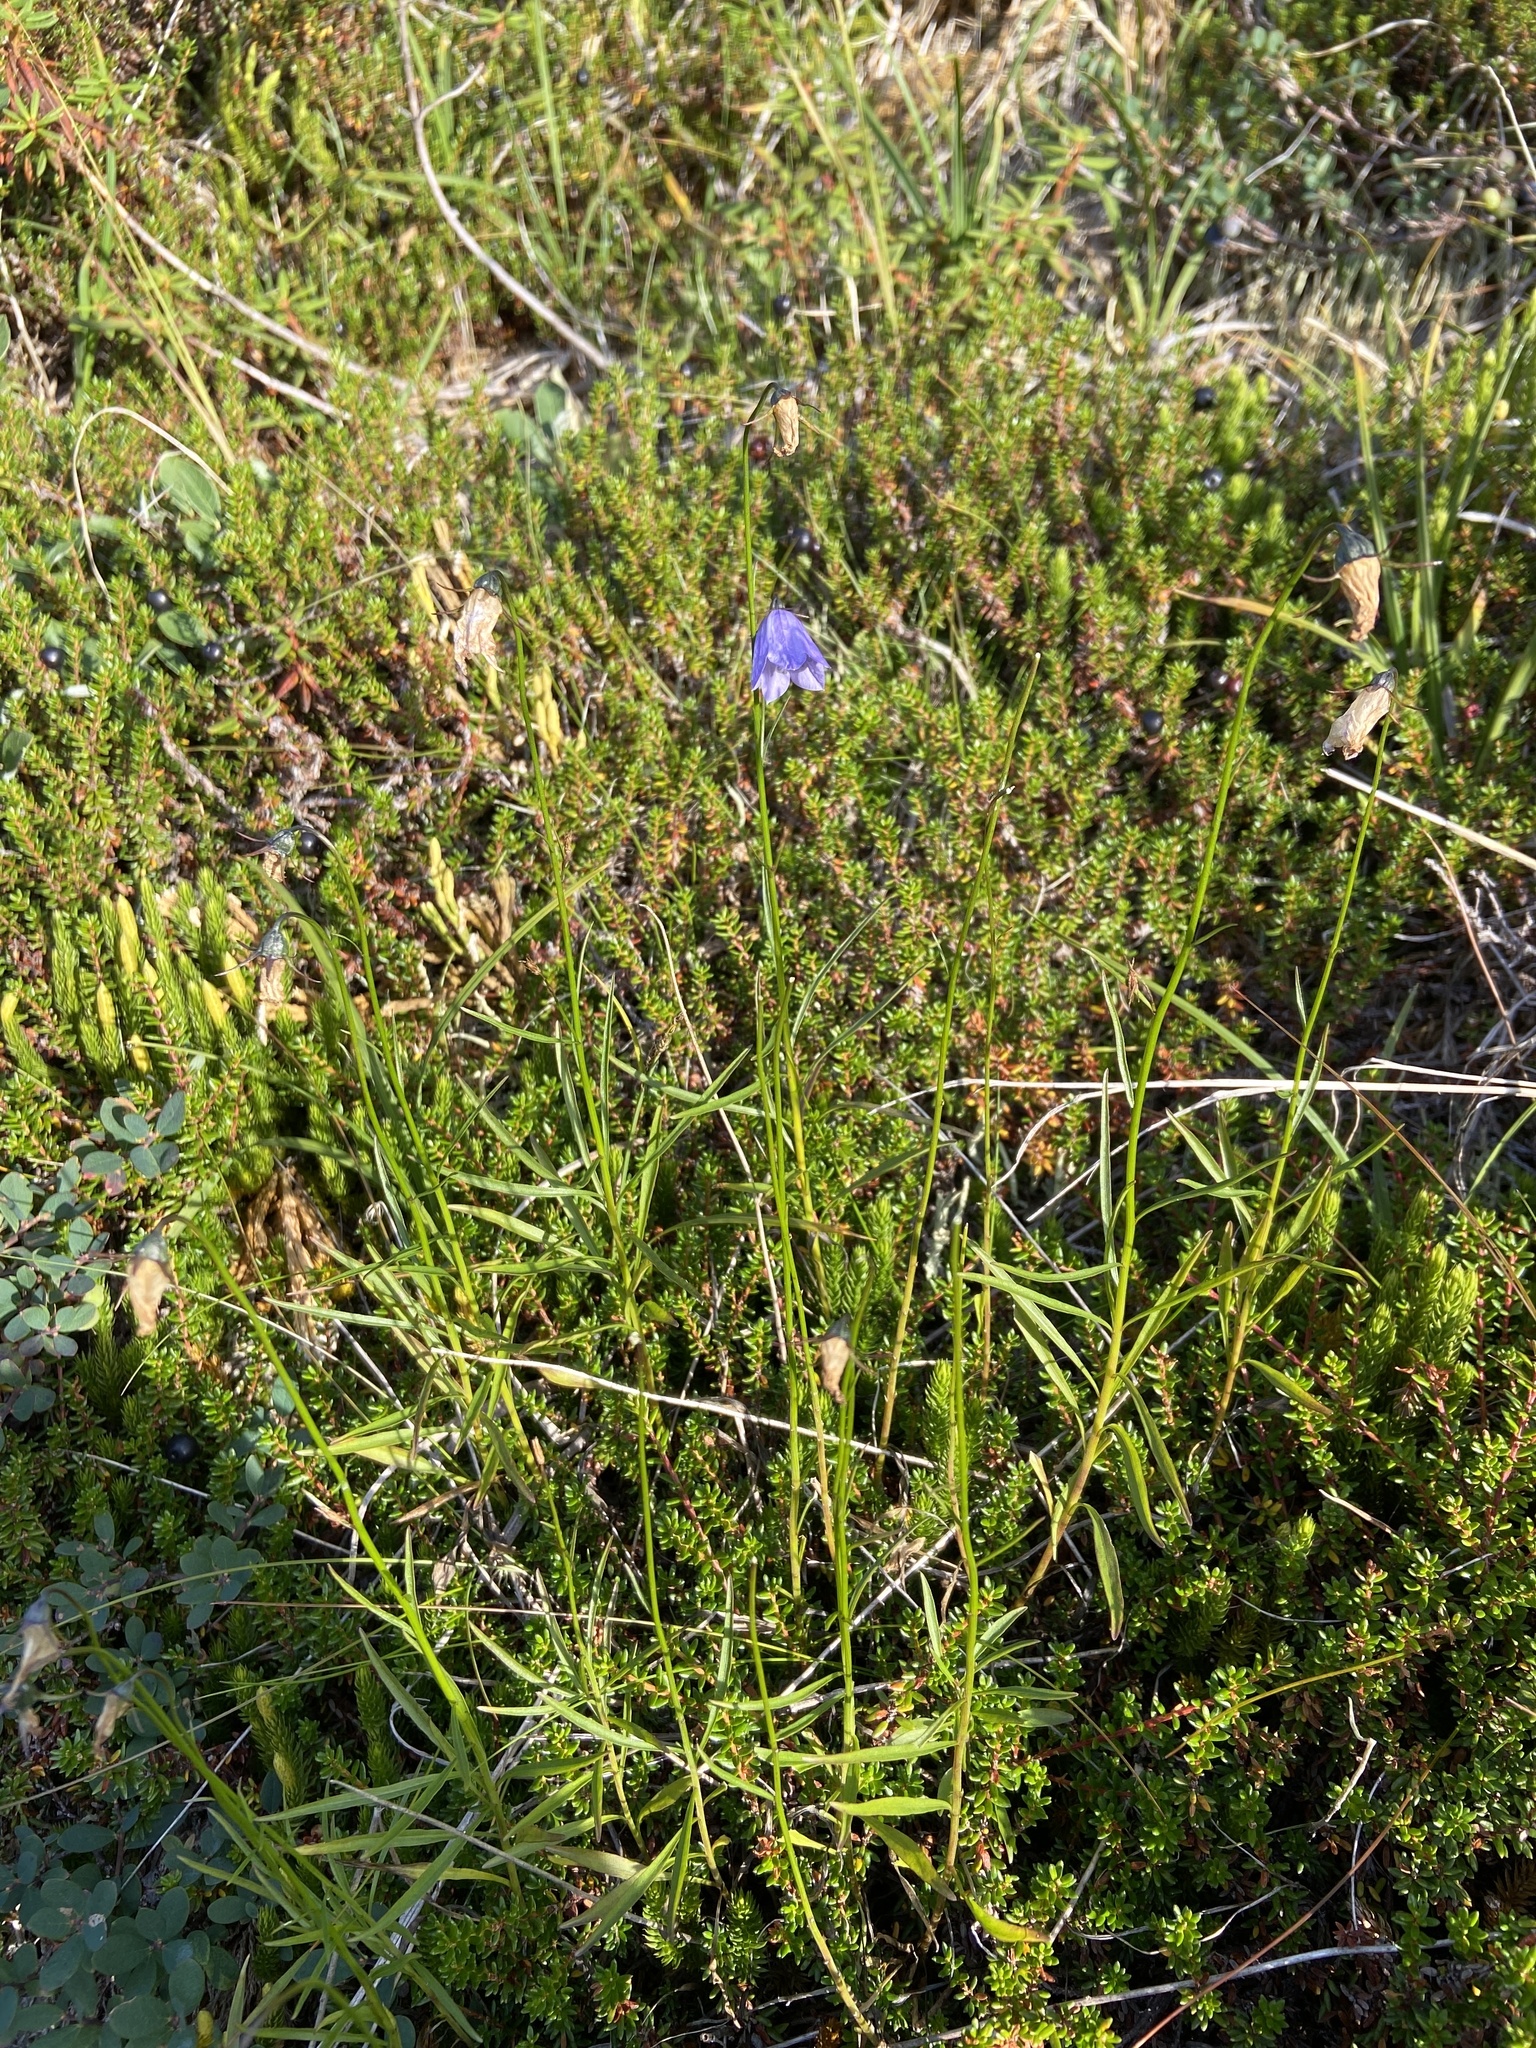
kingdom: Plantae
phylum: Tracheophyta
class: Magnoliopsida
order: Asterales
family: Campanulaceae
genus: Campanula
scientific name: Campanula giesekiana
